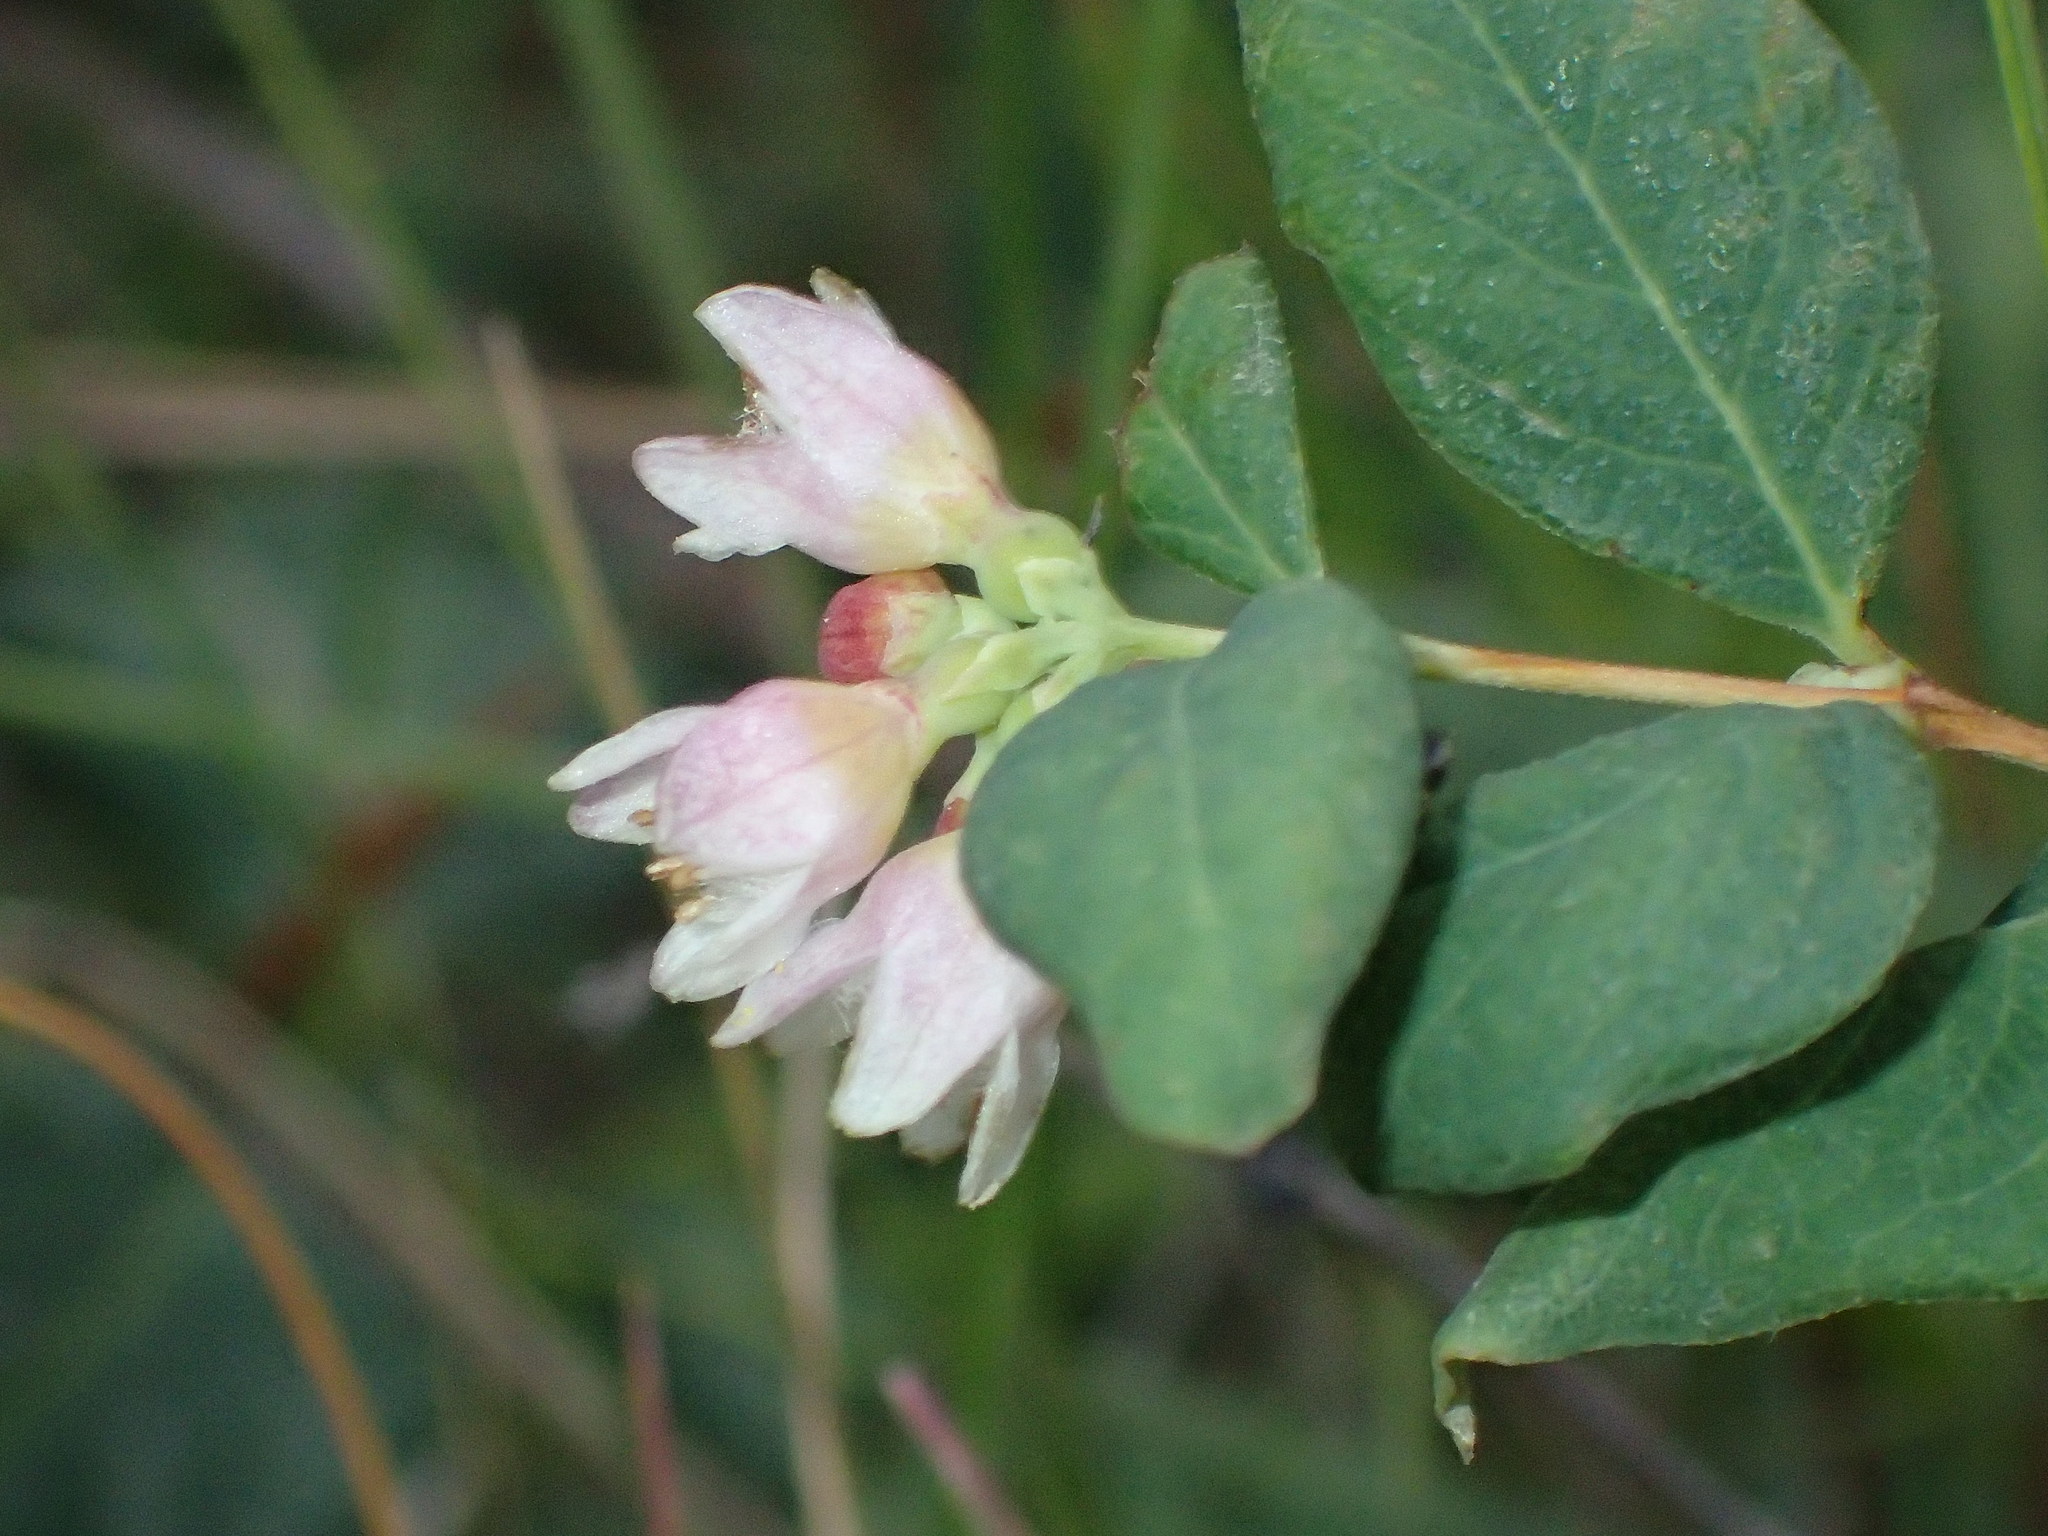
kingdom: Plantae
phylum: Tracheophyta
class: Magnoliopsida
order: Dipsacales
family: Caprifoliaceae
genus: Symphoricarpos
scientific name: Symphoricarpos albus
